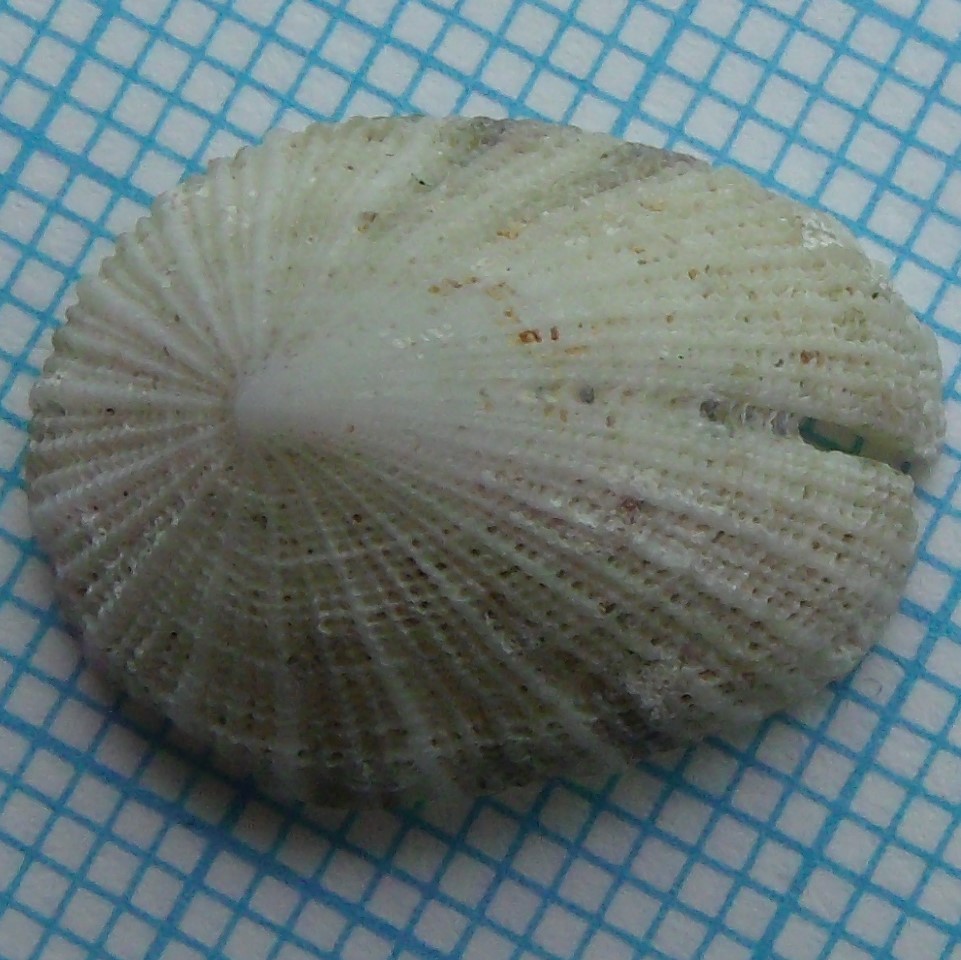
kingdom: Animalia
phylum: Mollusca
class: Gastropoda
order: Lepetellida
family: Fissurellidae
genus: Emarginula
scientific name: Emarginula striatula
